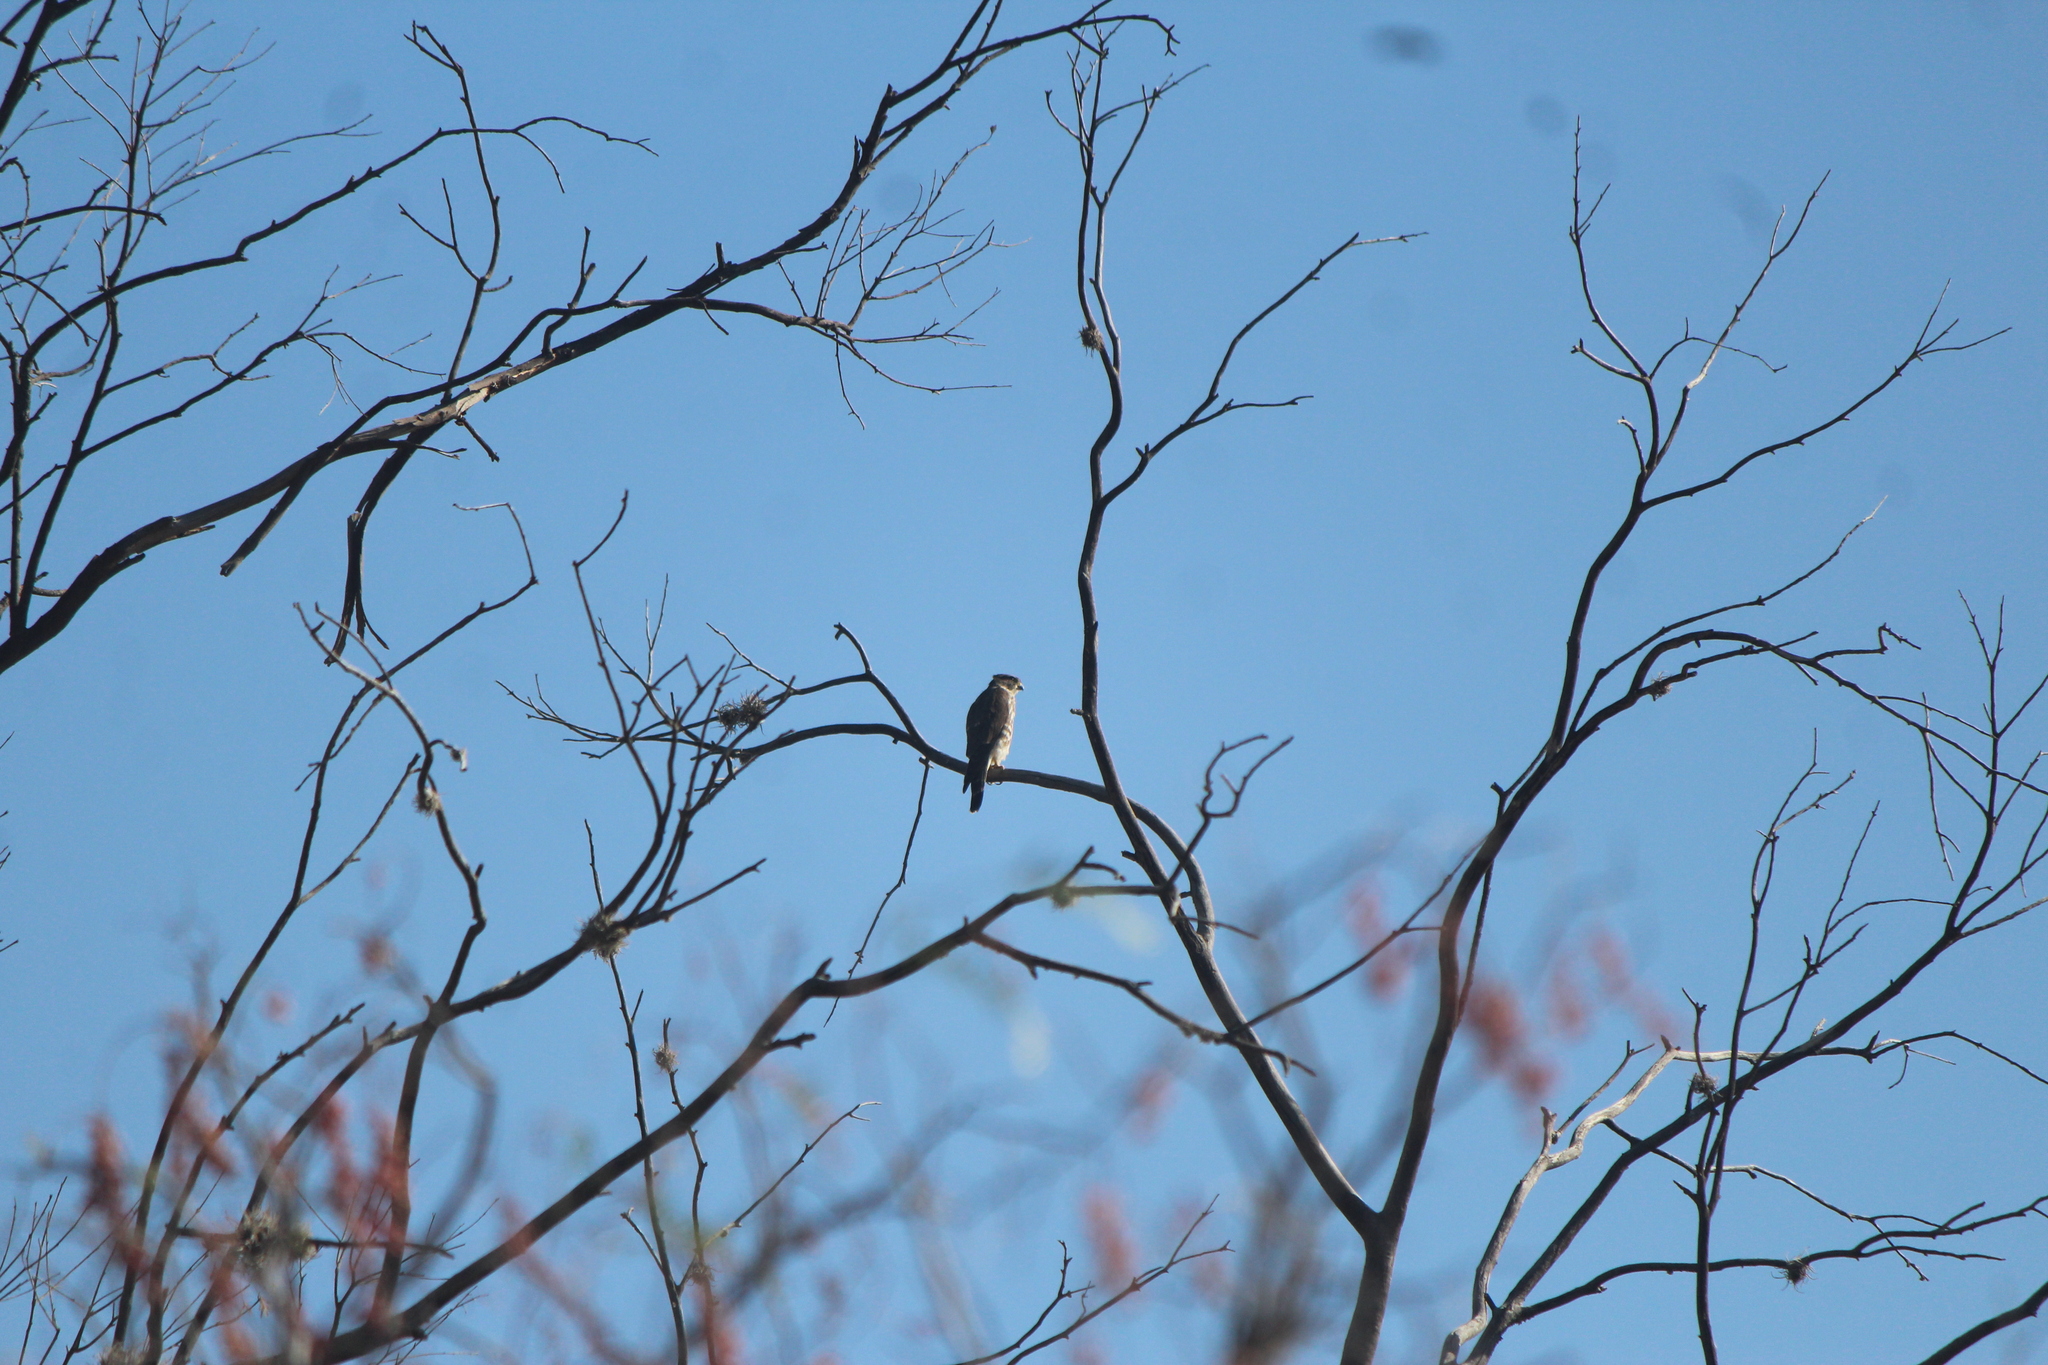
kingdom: Animalia
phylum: Chordata
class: Aves
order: Falconiformes
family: Falconidae
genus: Falco
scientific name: Falco columbarius
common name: Merlin
